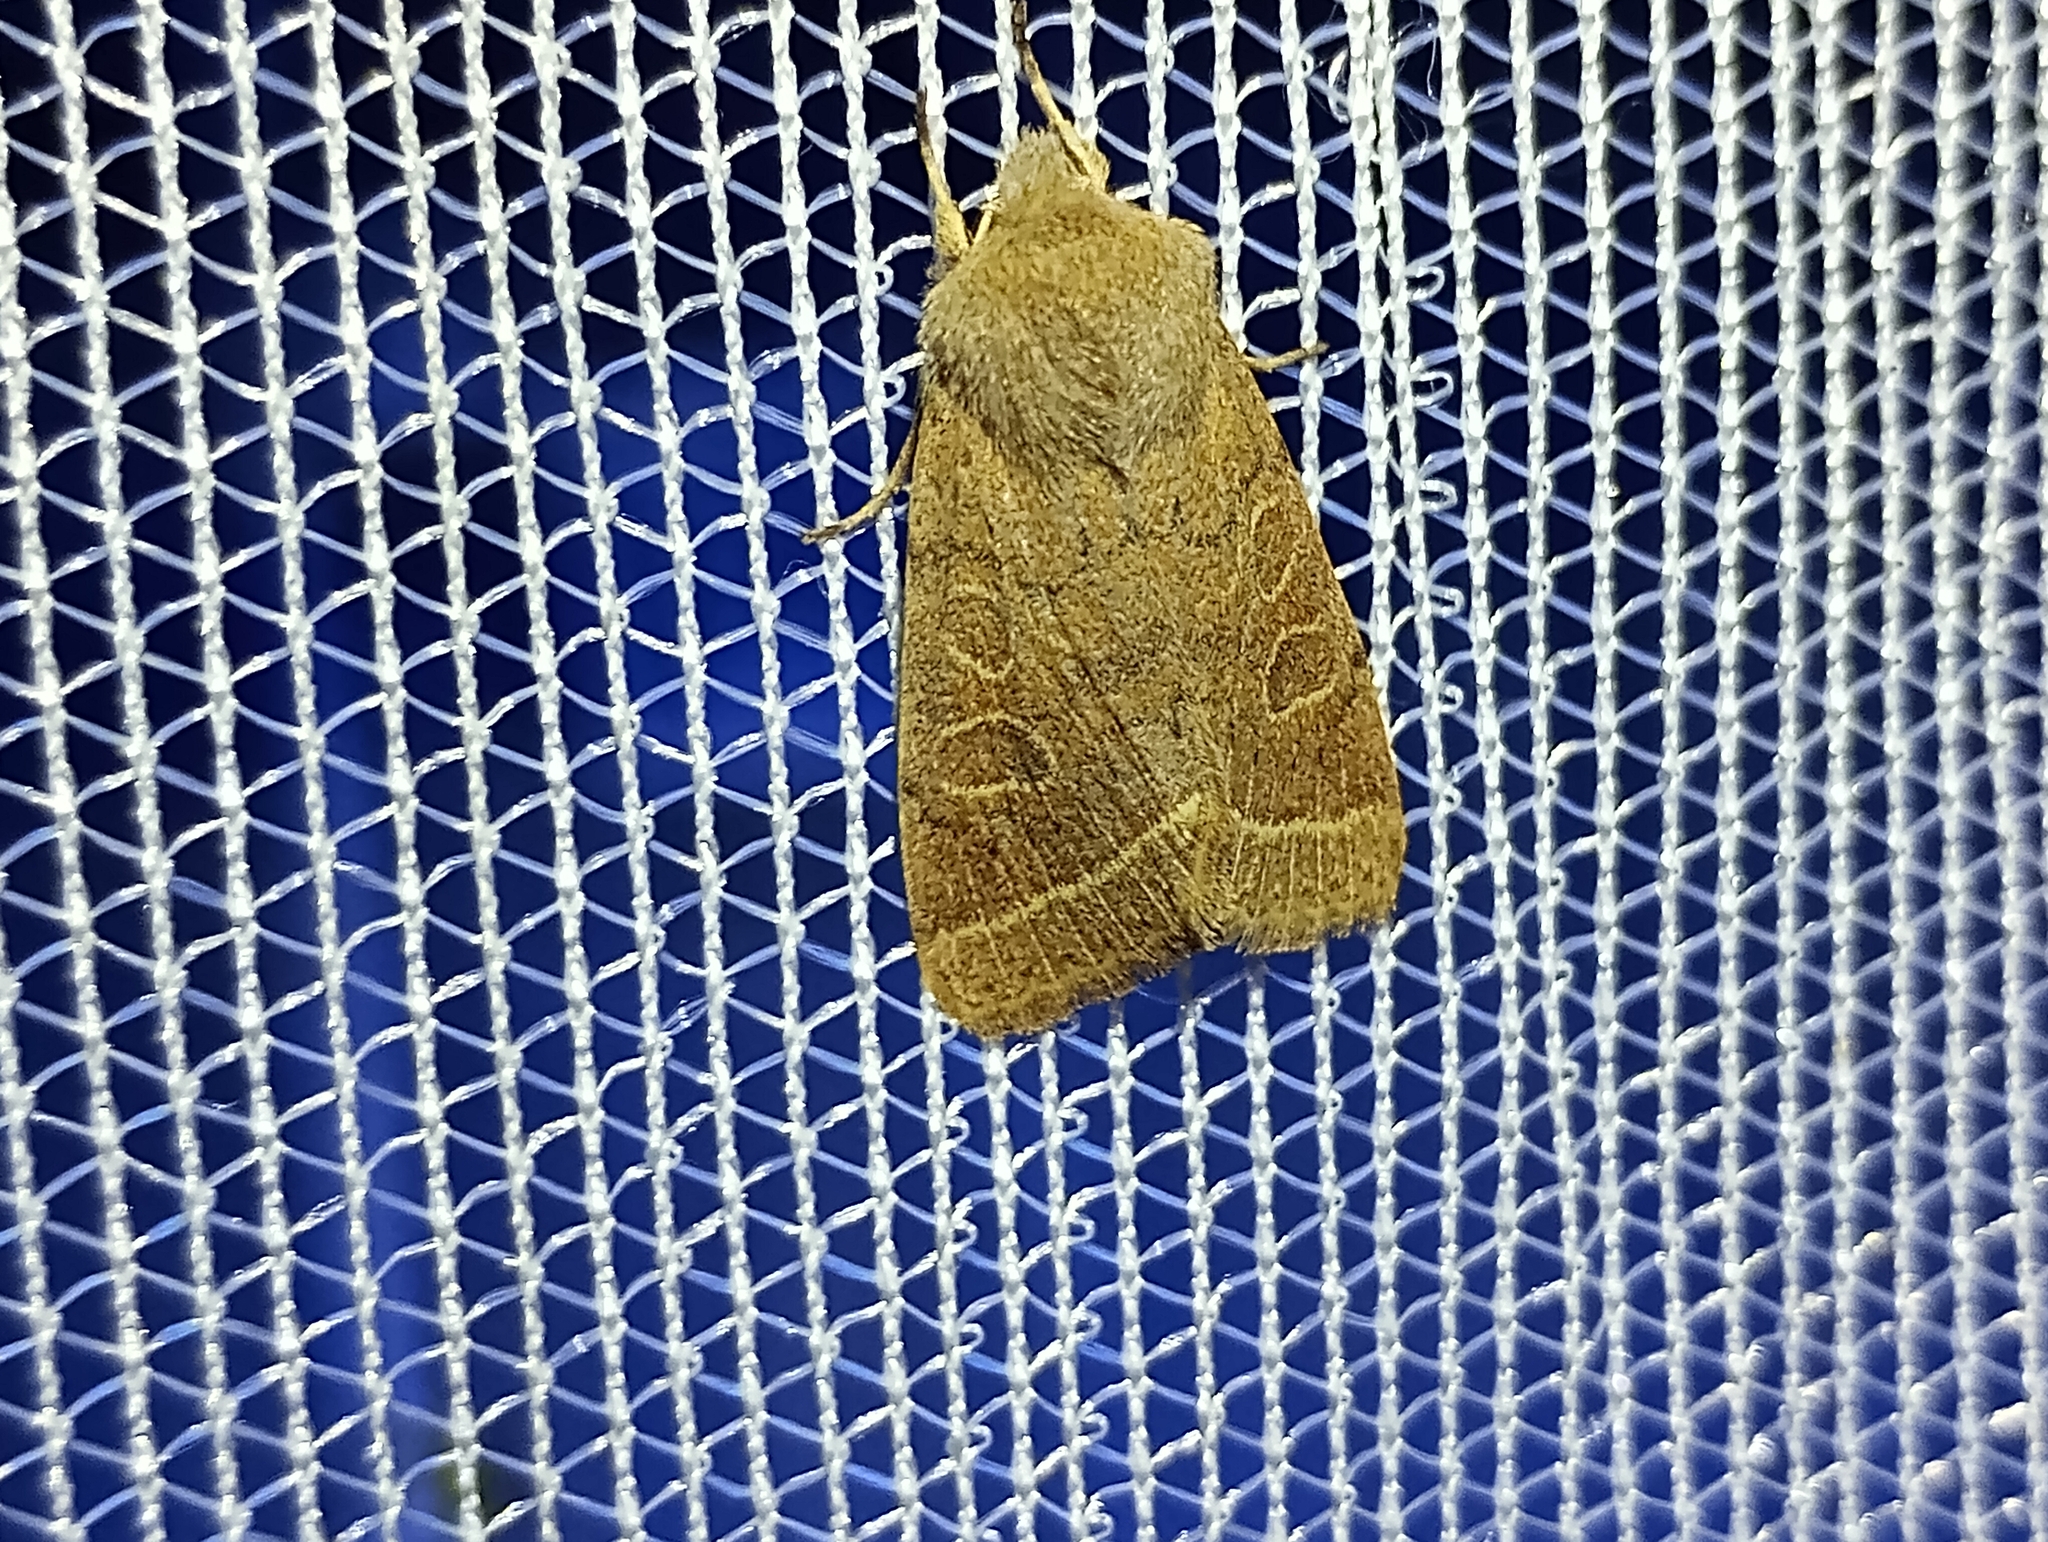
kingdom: Animalia
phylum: Arthropoda
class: Insecta
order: Lepidoptera
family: Noctuidae
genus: Orthosia
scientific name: Orthosia cerasi
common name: Common quaker
